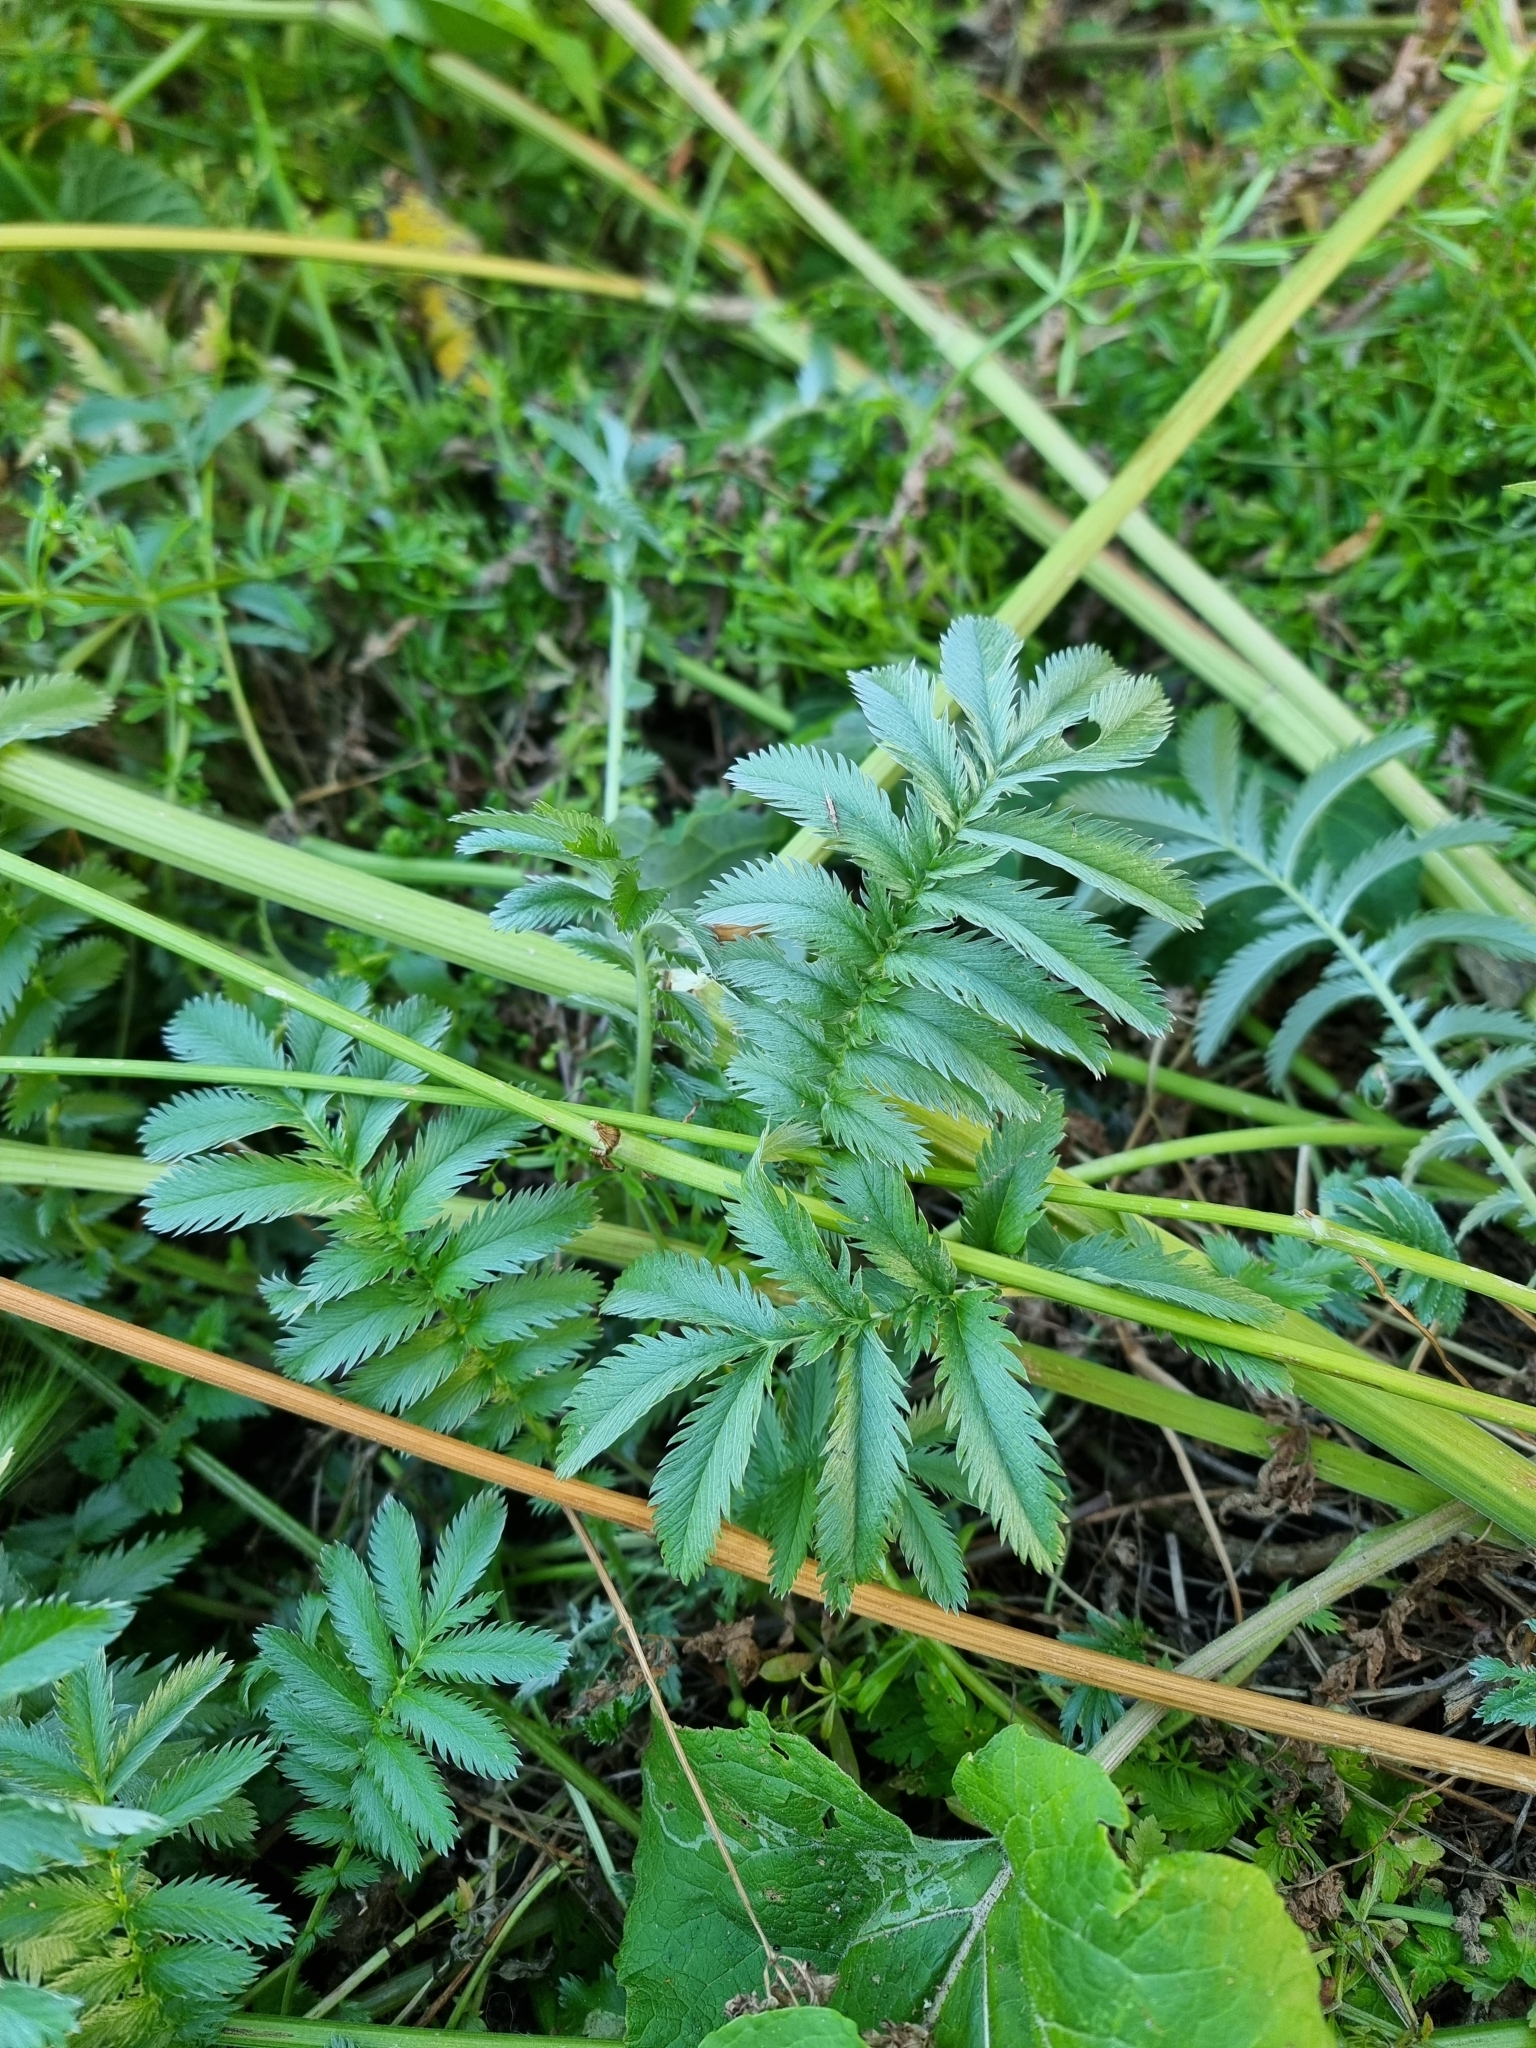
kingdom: Plantae
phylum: Tracheophyta
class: Magnoliopsida
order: Rosales
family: Rosaceae
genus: Argentina
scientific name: Argentina anserina
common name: Common silverweed
